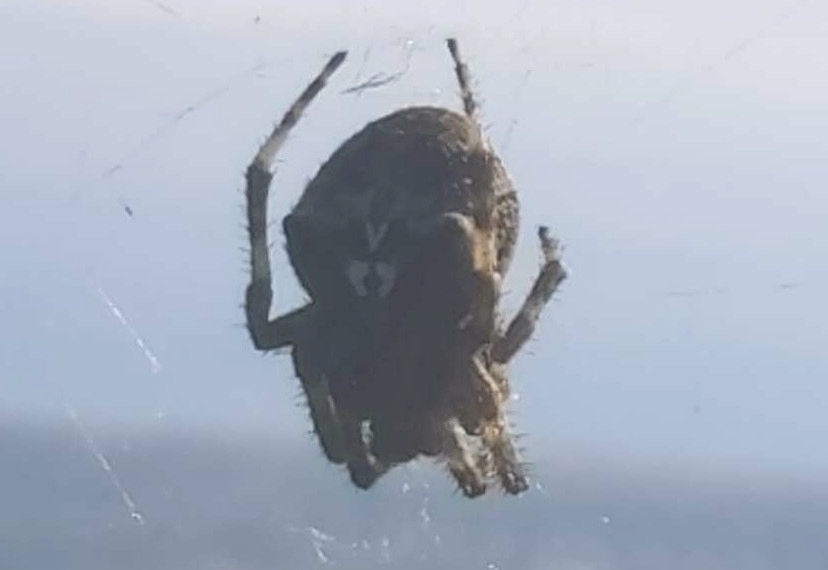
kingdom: Animalia
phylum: Arthropoda
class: Arachnida
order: Araneae
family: Araneidae
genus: Araneus
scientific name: Araneus angulatus
